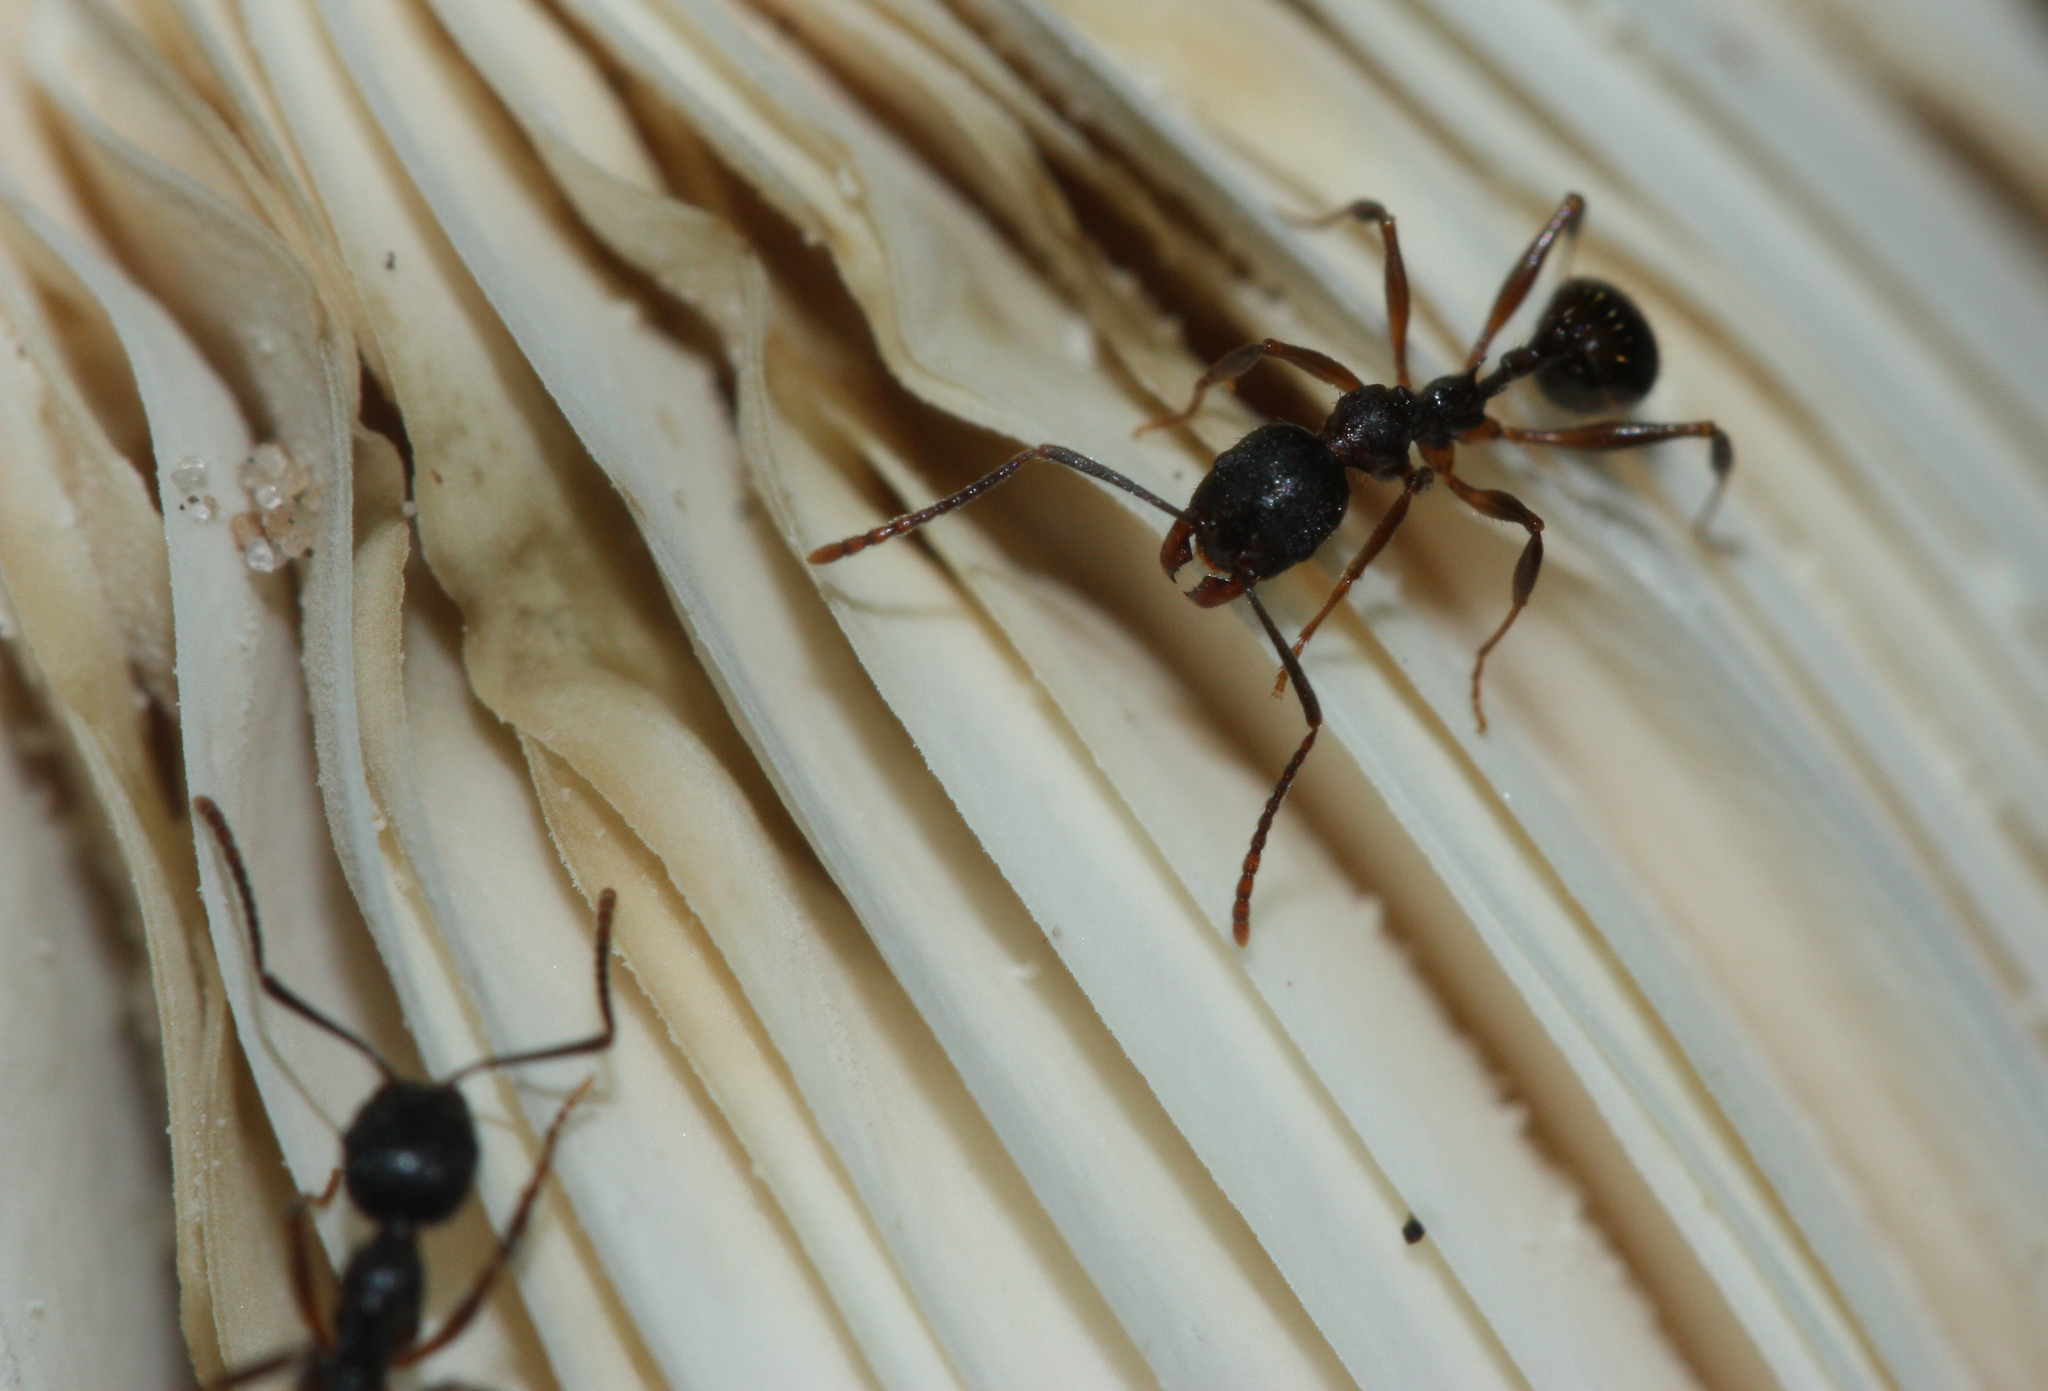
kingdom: Animalia
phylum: Arthropoda
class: Insecta
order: Hymenoptera
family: Formicidae
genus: Aphaenogaster
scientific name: Aphaenogaster picea
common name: Pitch-black collared ant
